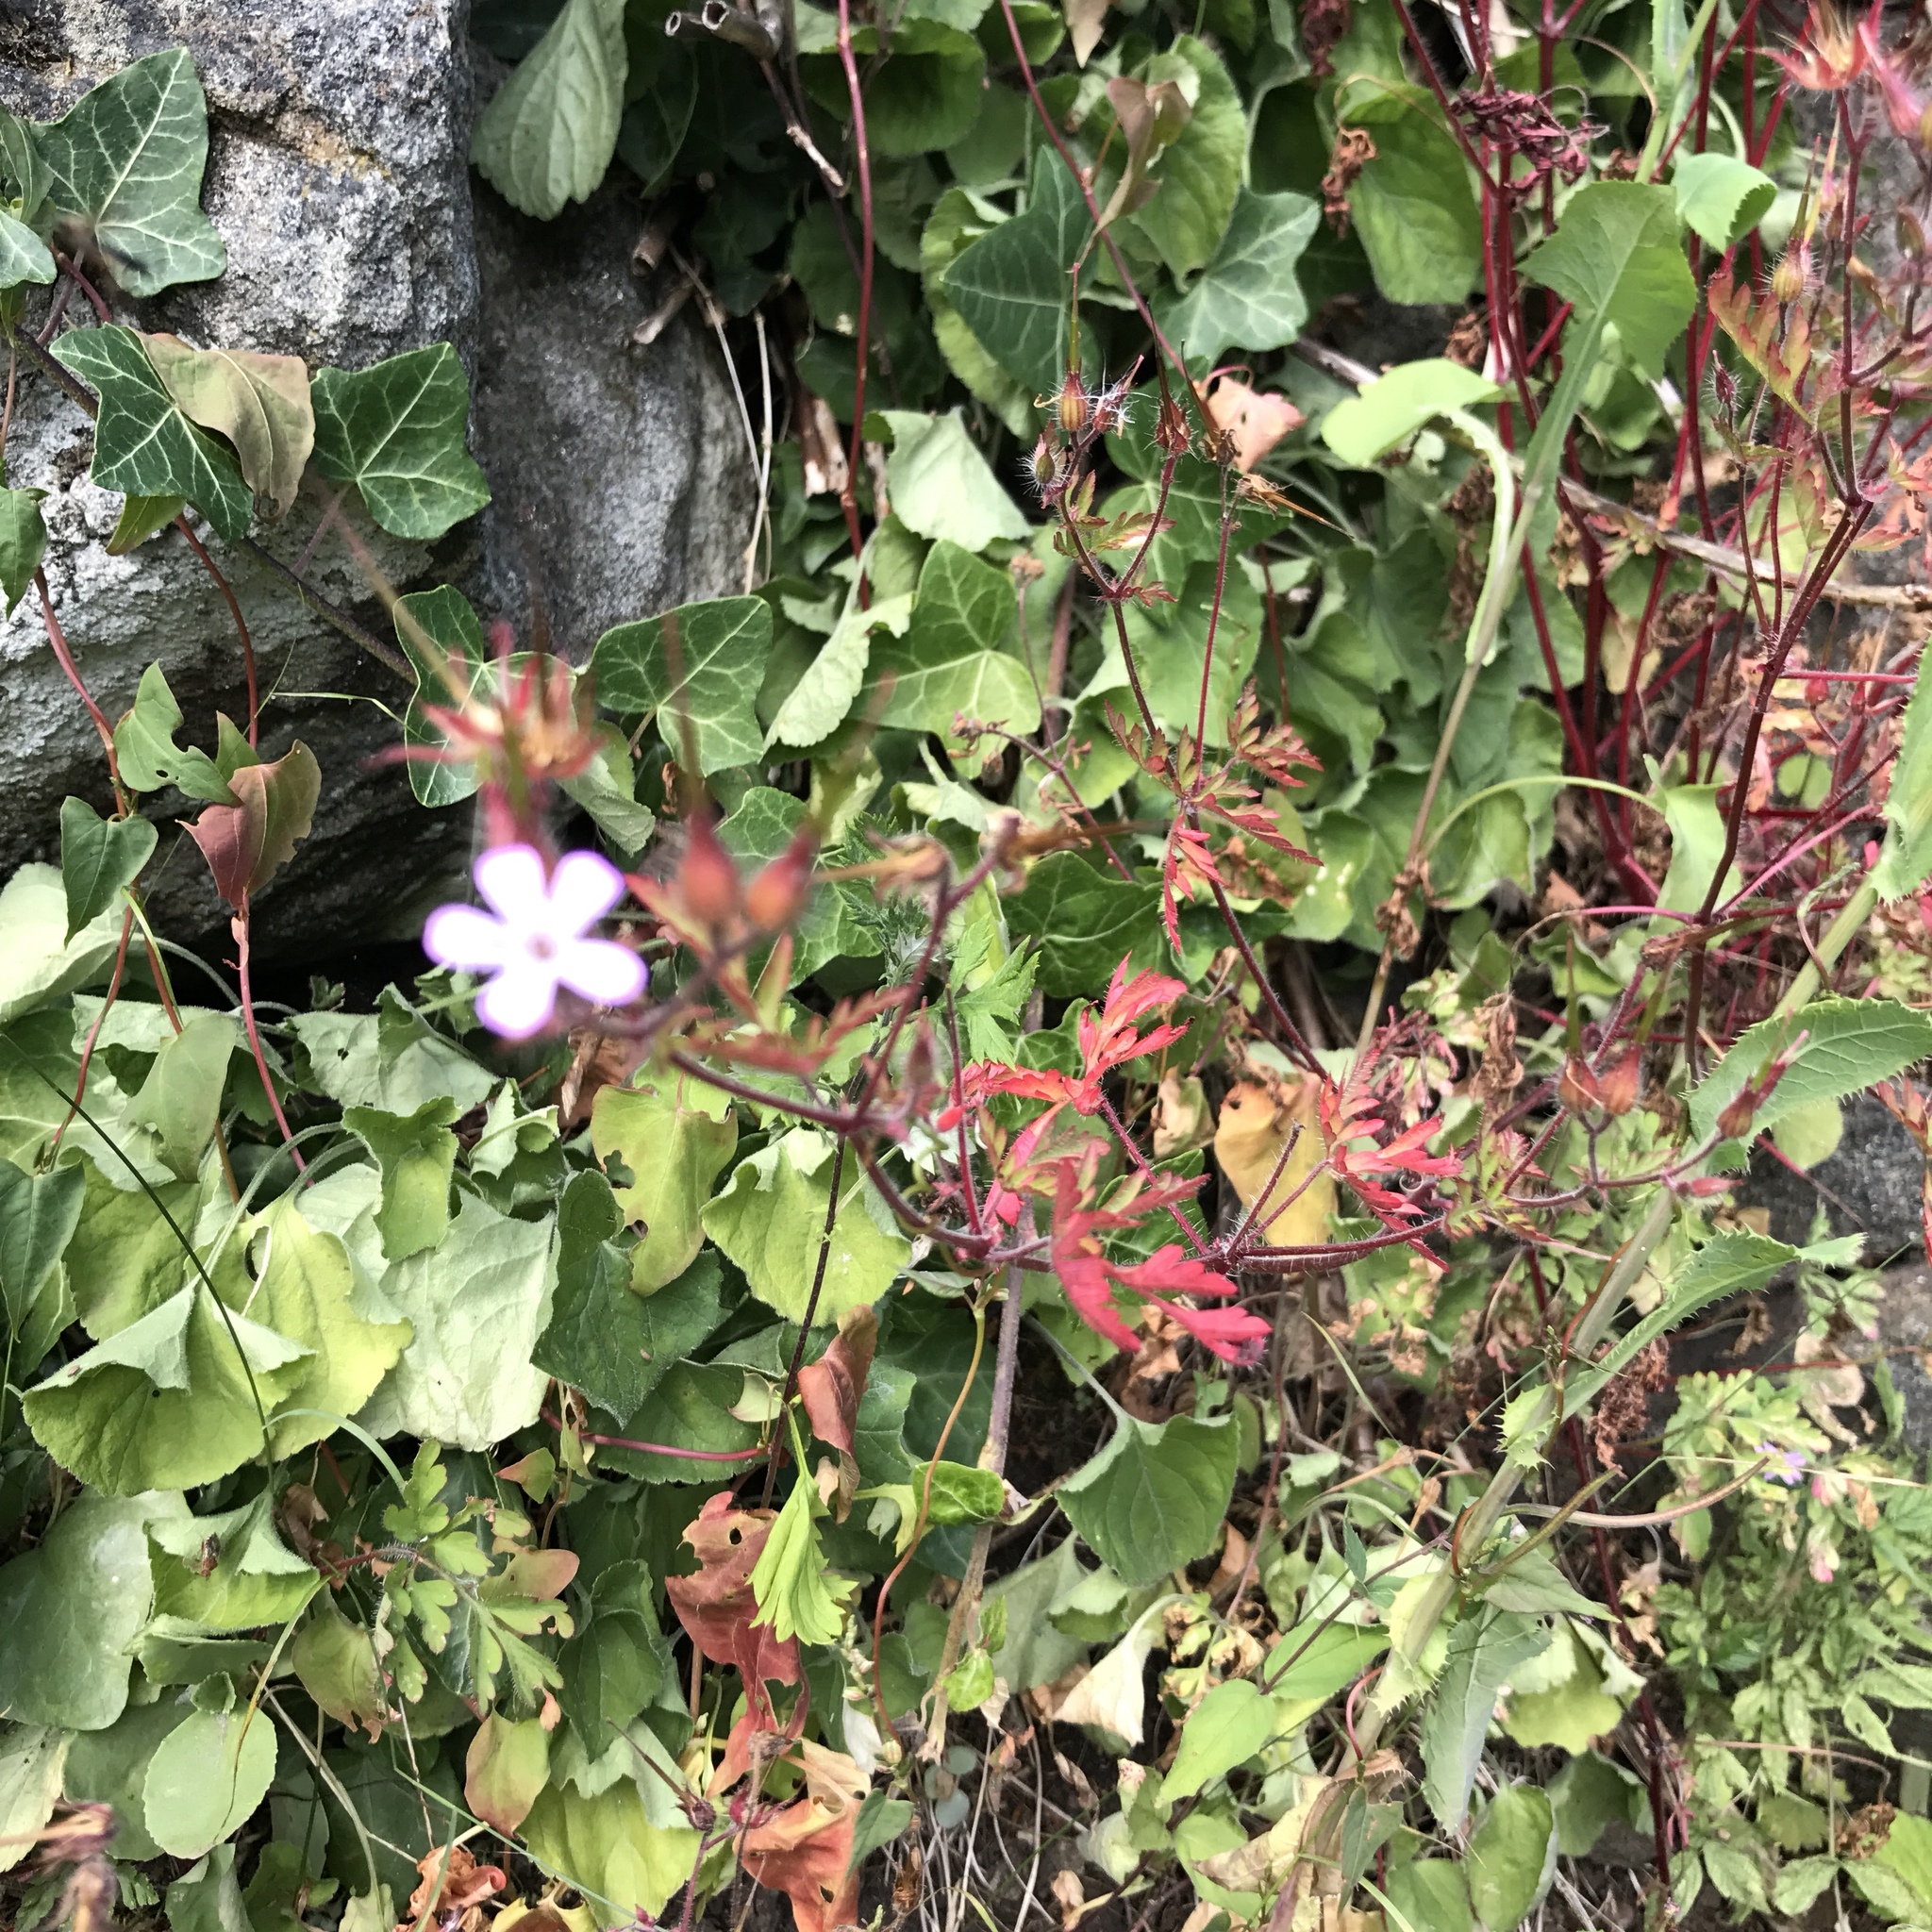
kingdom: Plantae
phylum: Tracheophyta
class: Magnoliopsida
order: Geraniales
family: Geraniaceae
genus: Geranium
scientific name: Geranium robertianum
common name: Herb-robert
